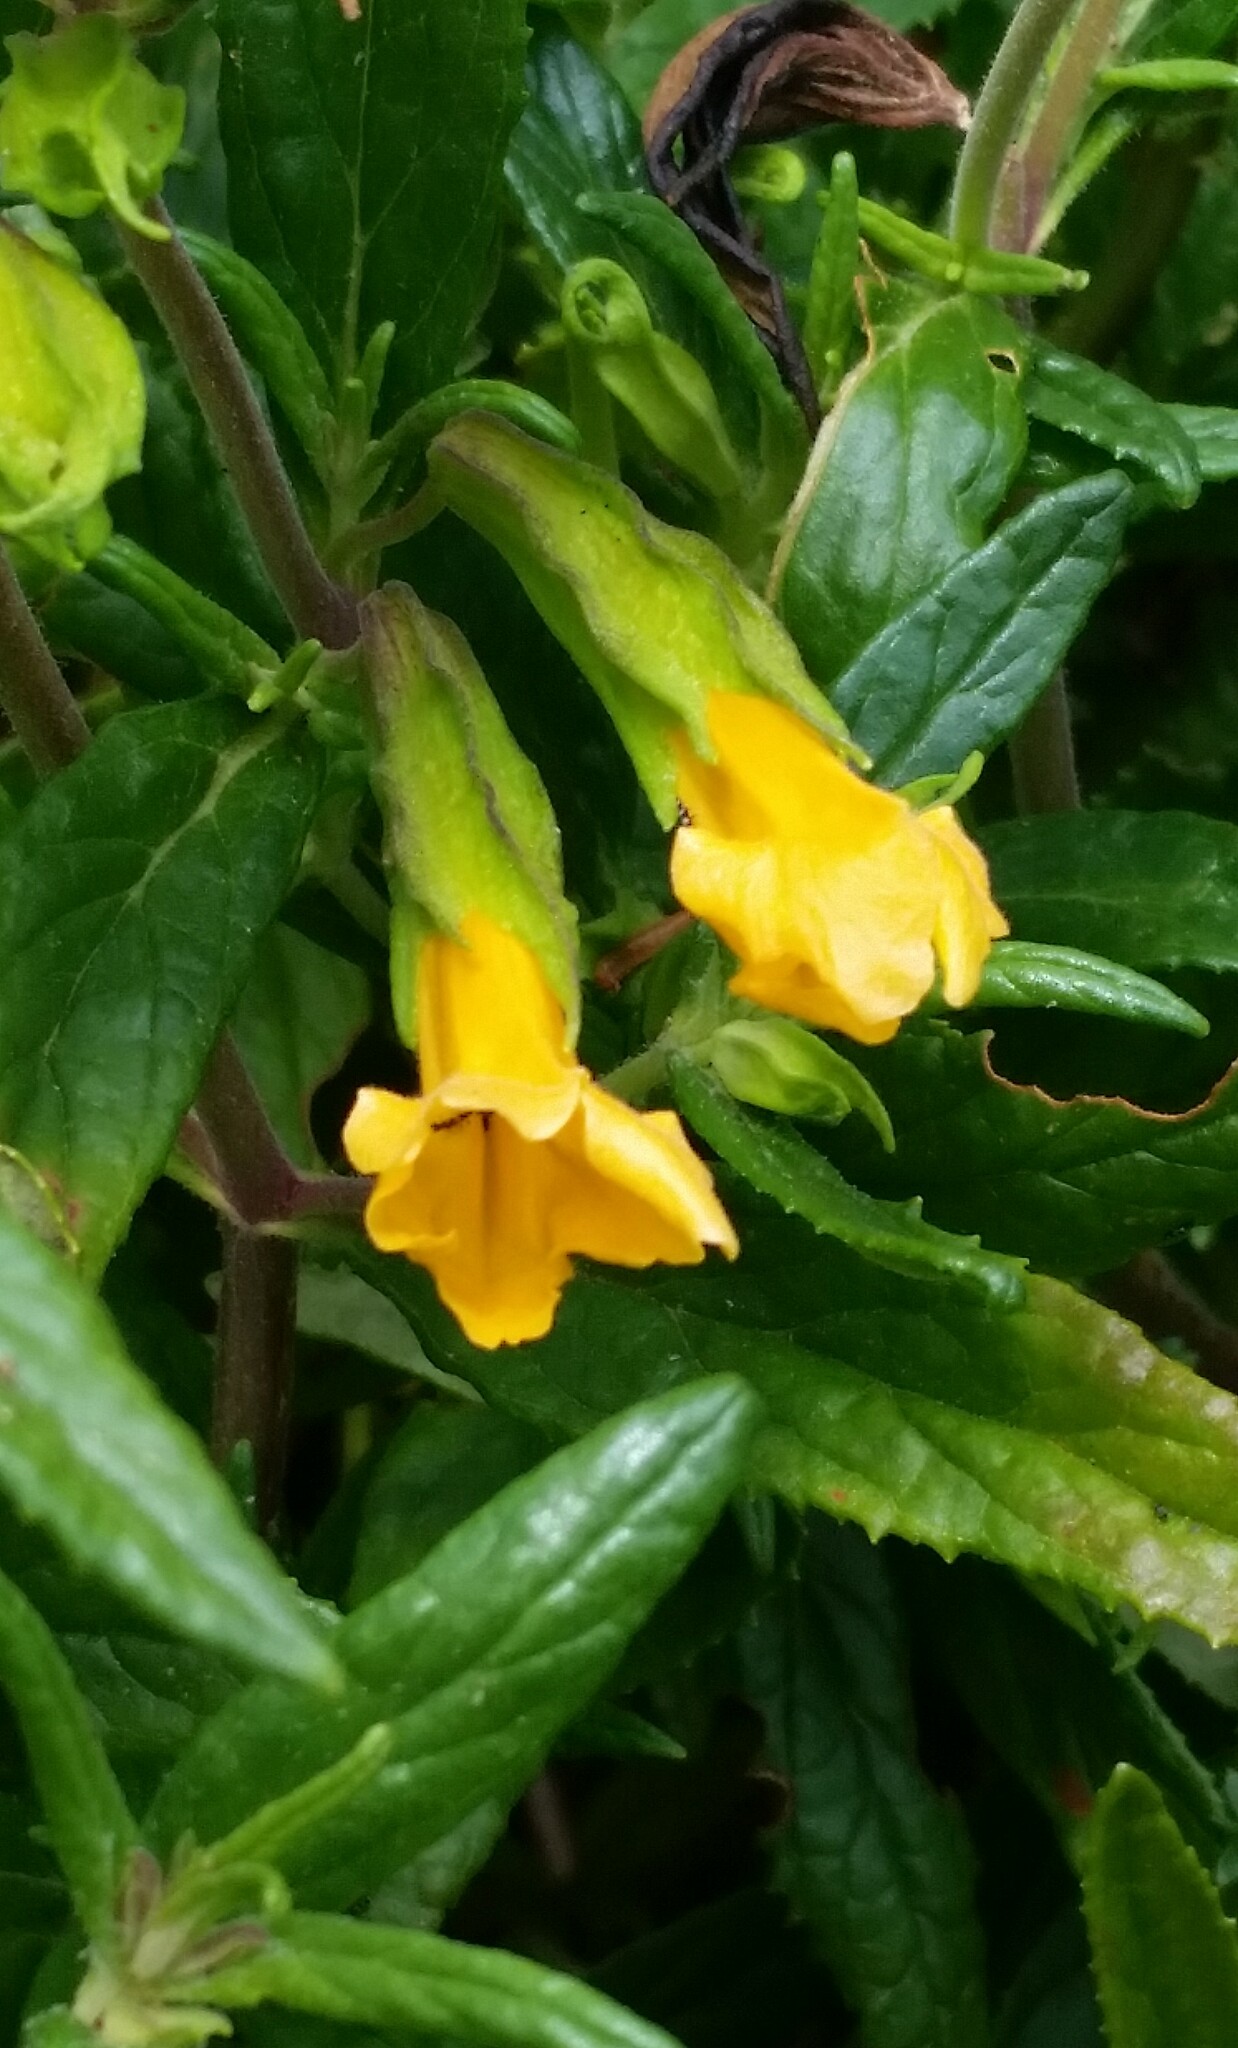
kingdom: Plantae
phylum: Tracheophyta
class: Magnoliopsida
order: Lamiales
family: Phrymaceae
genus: Diplacus
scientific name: Diplacus aurantiacus
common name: Bush monkey-flower
